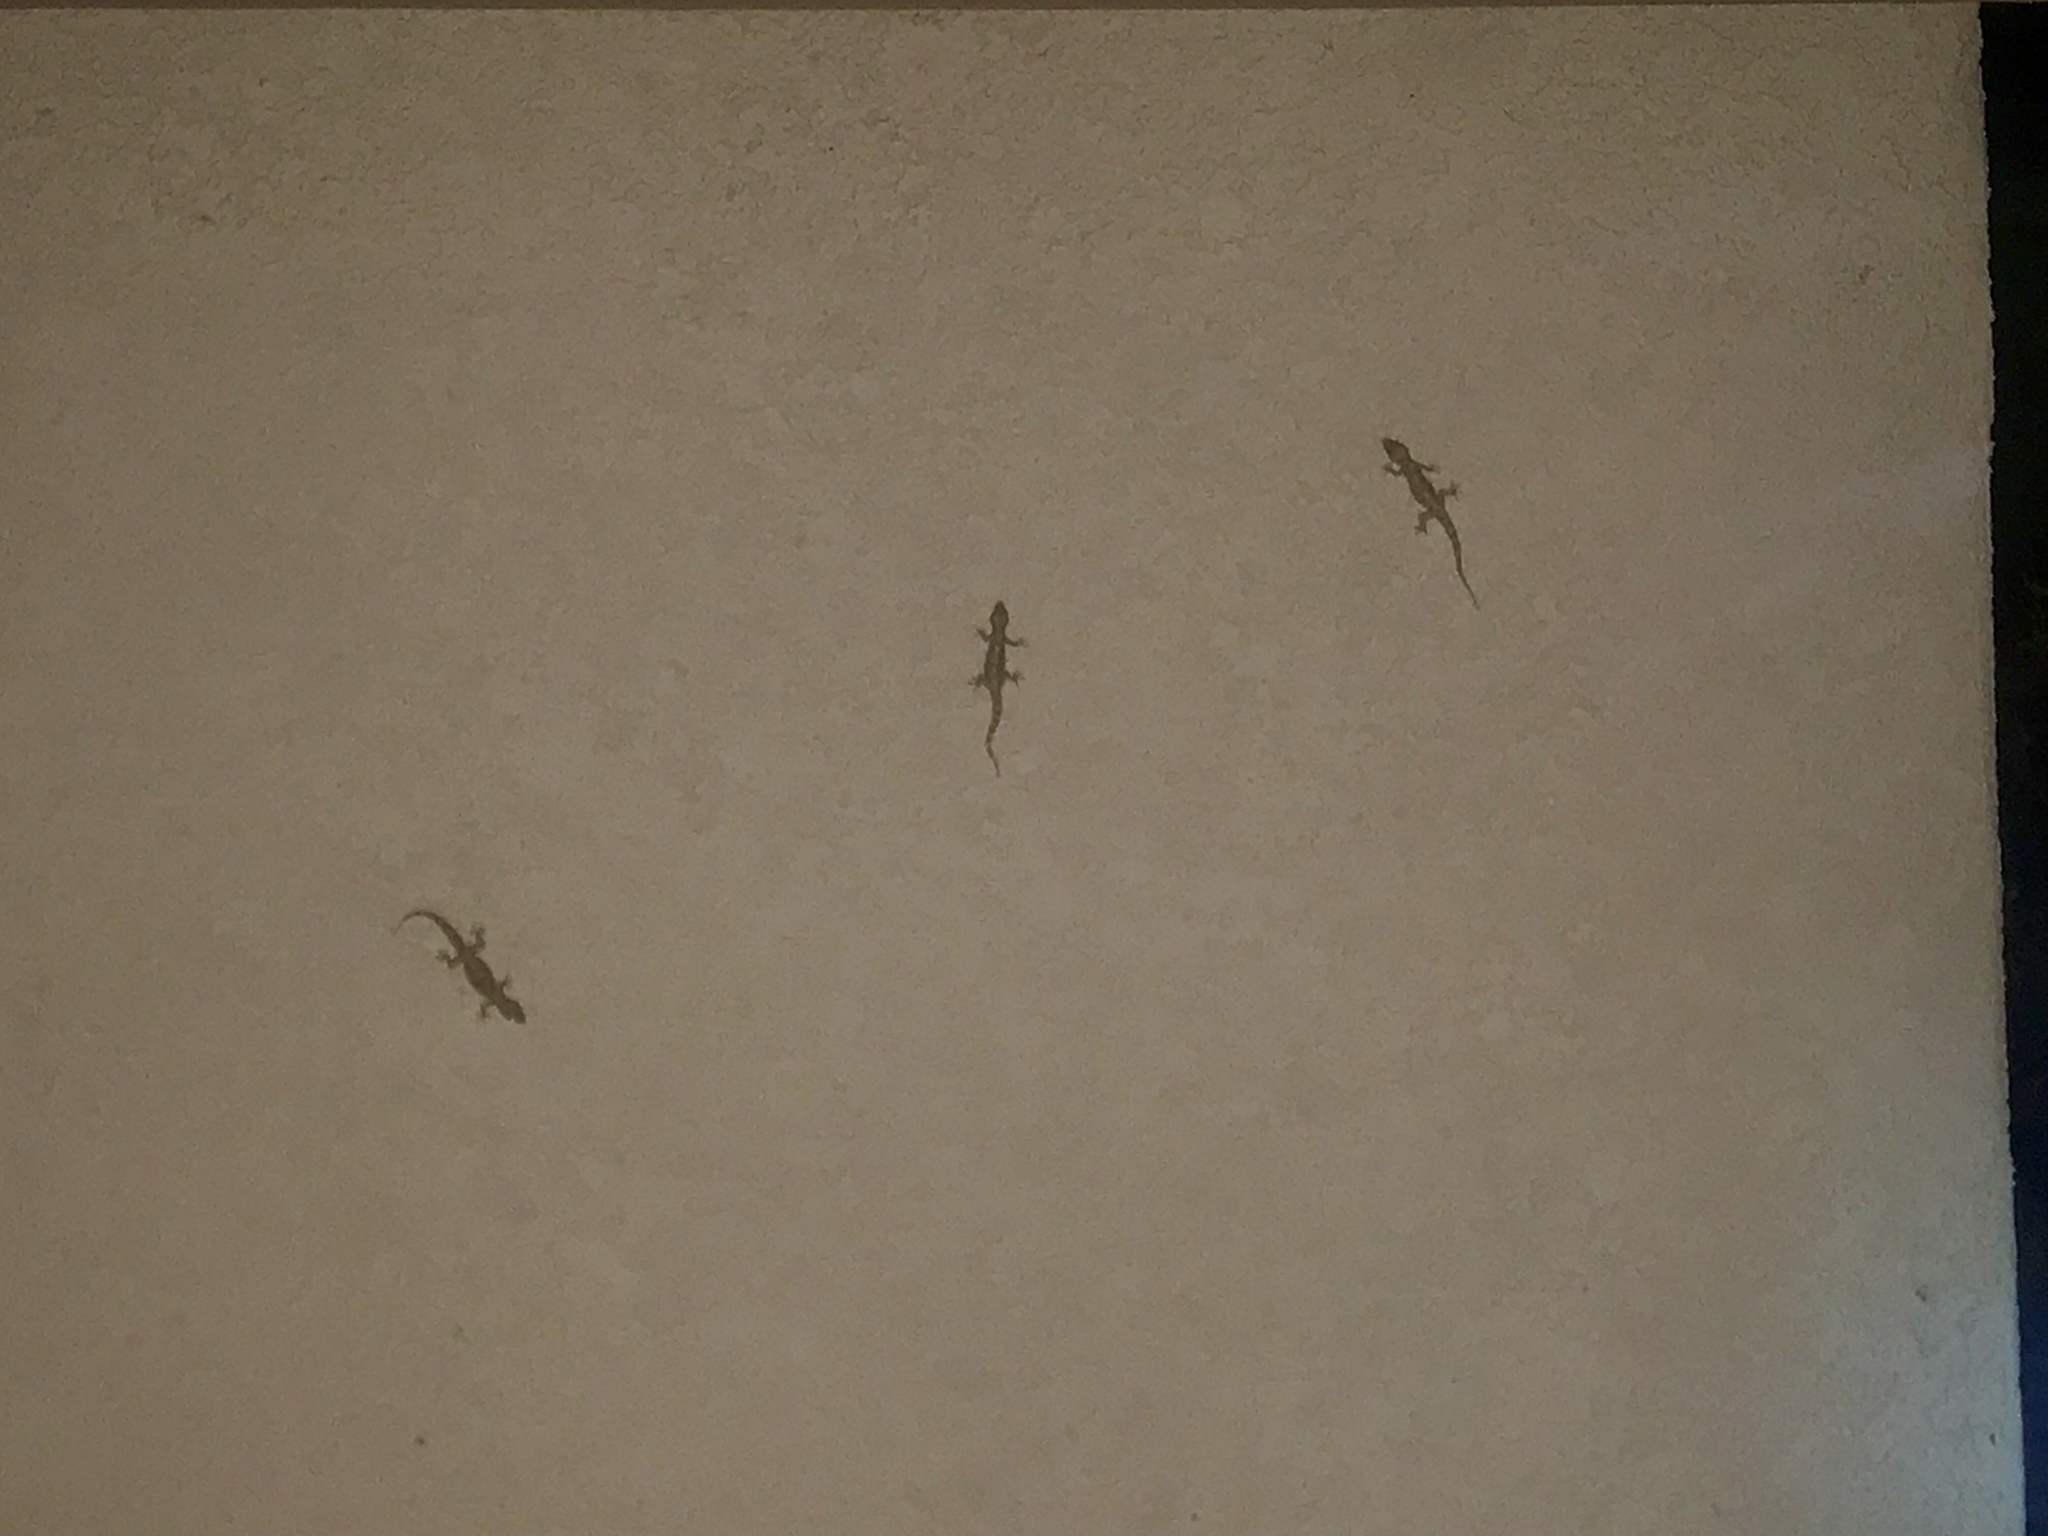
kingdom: Animalia
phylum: Chordata
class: Squamata
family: Gekkonidae
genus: Hemidactylus
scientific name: Hemidactylus turcicus
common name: Turkish gecko
